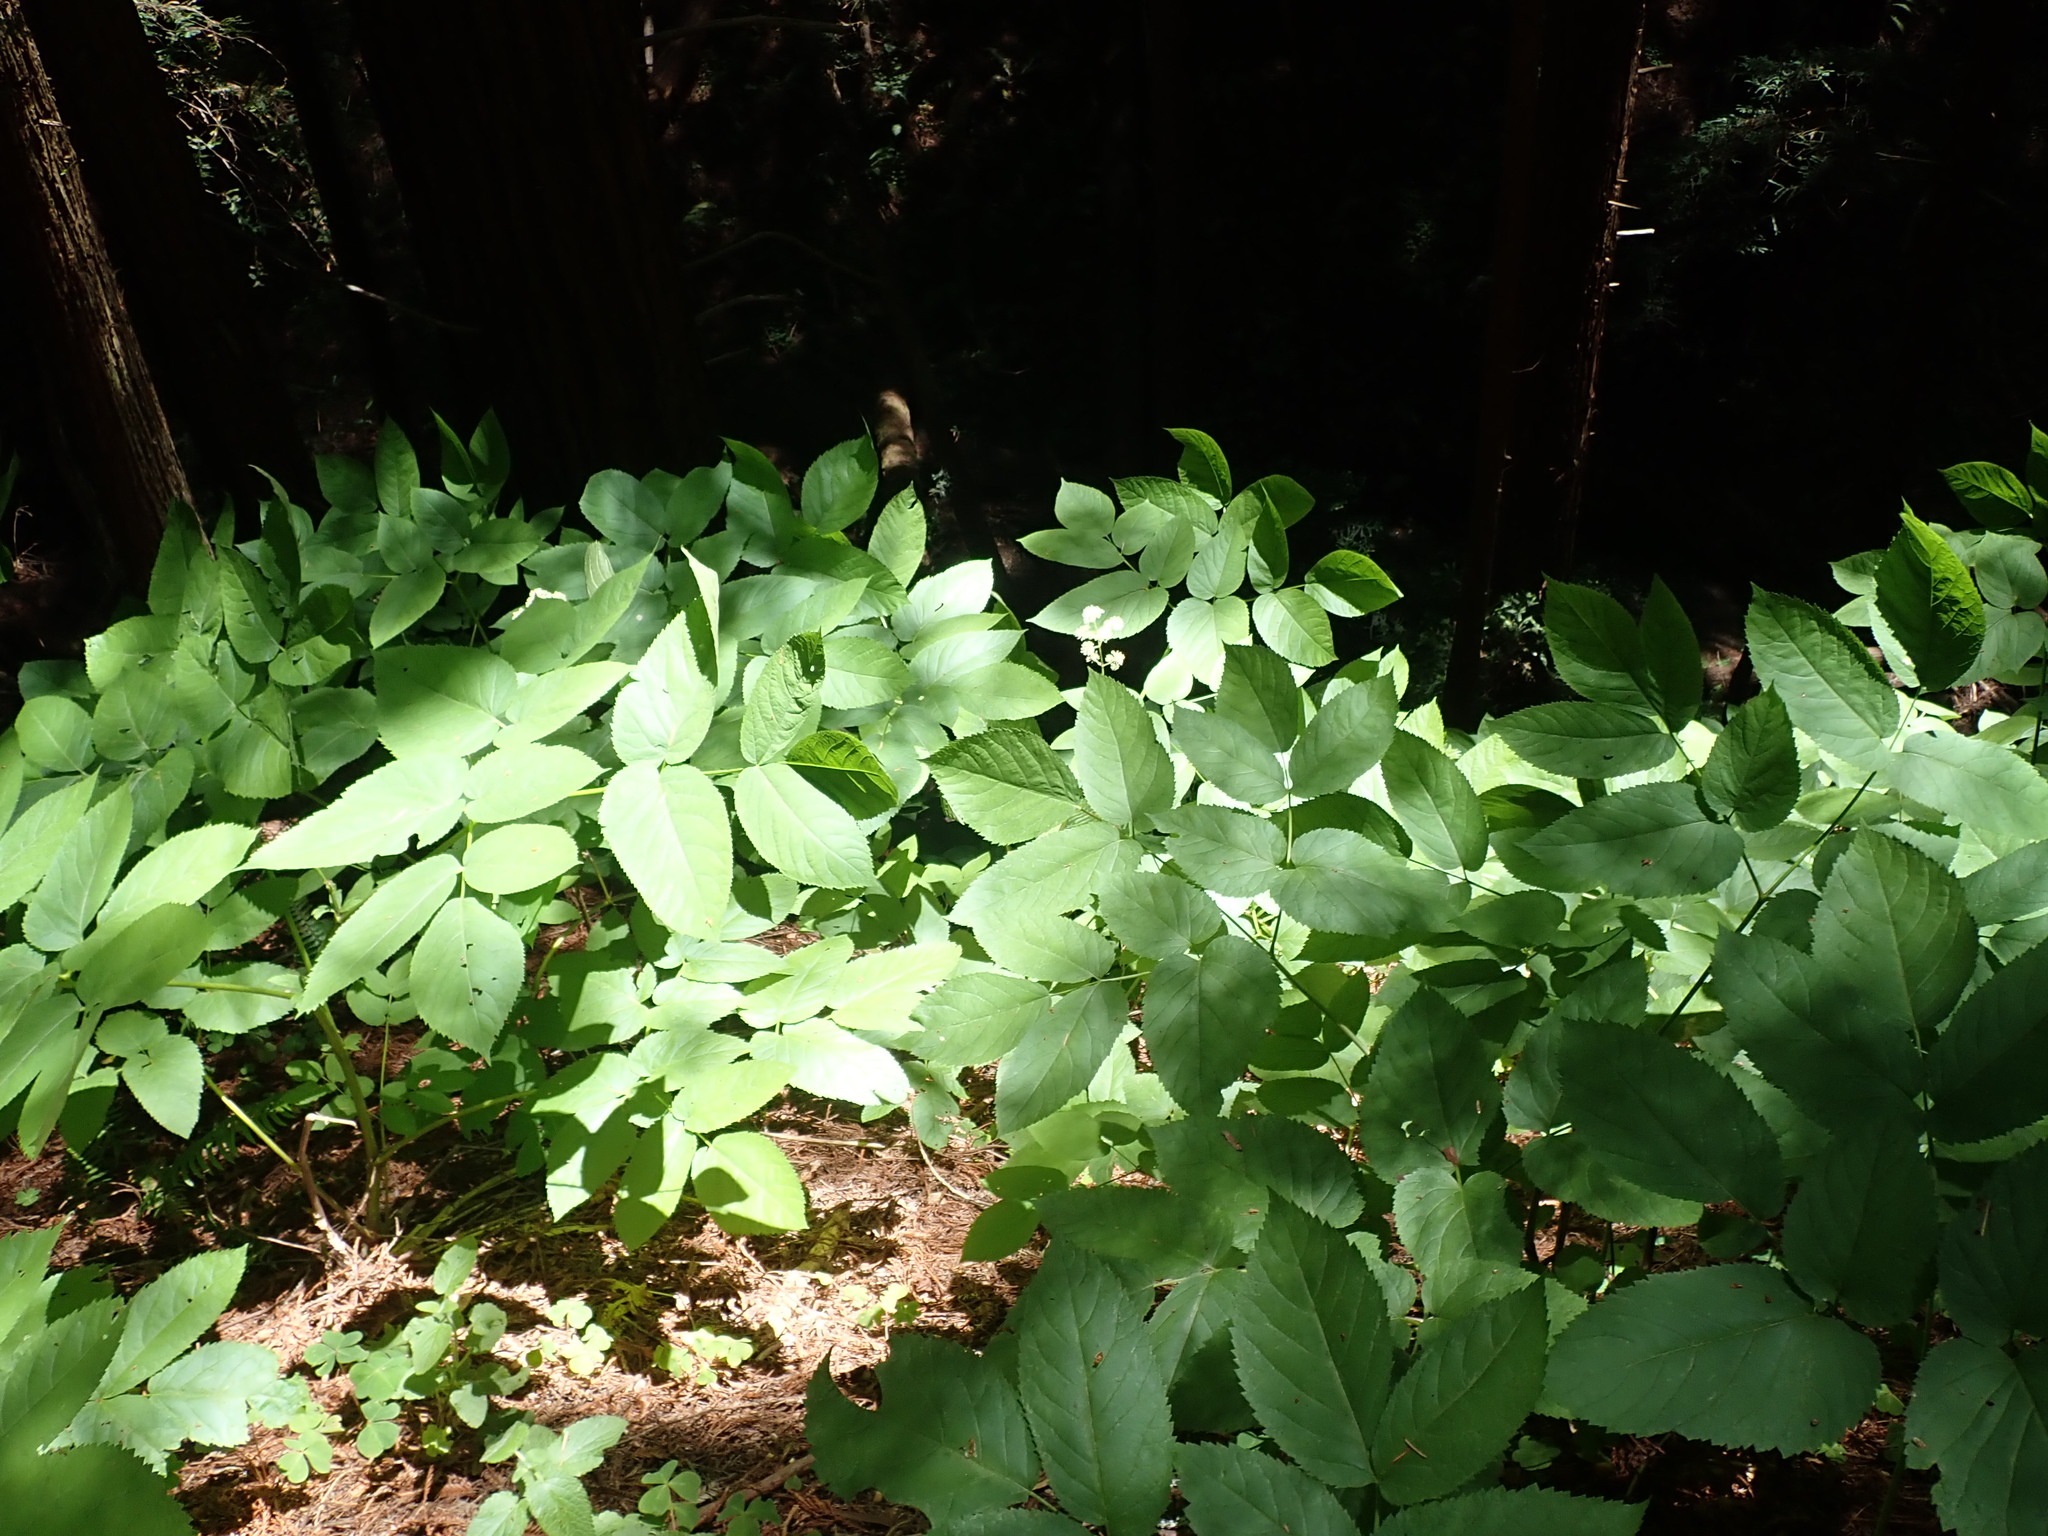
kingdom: Plantae
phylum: Tracheophyta
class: Magnoliopsida
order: Apiales
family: Araliaceae
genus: Aralia
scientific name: Aralia californica
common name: California-ginseng
